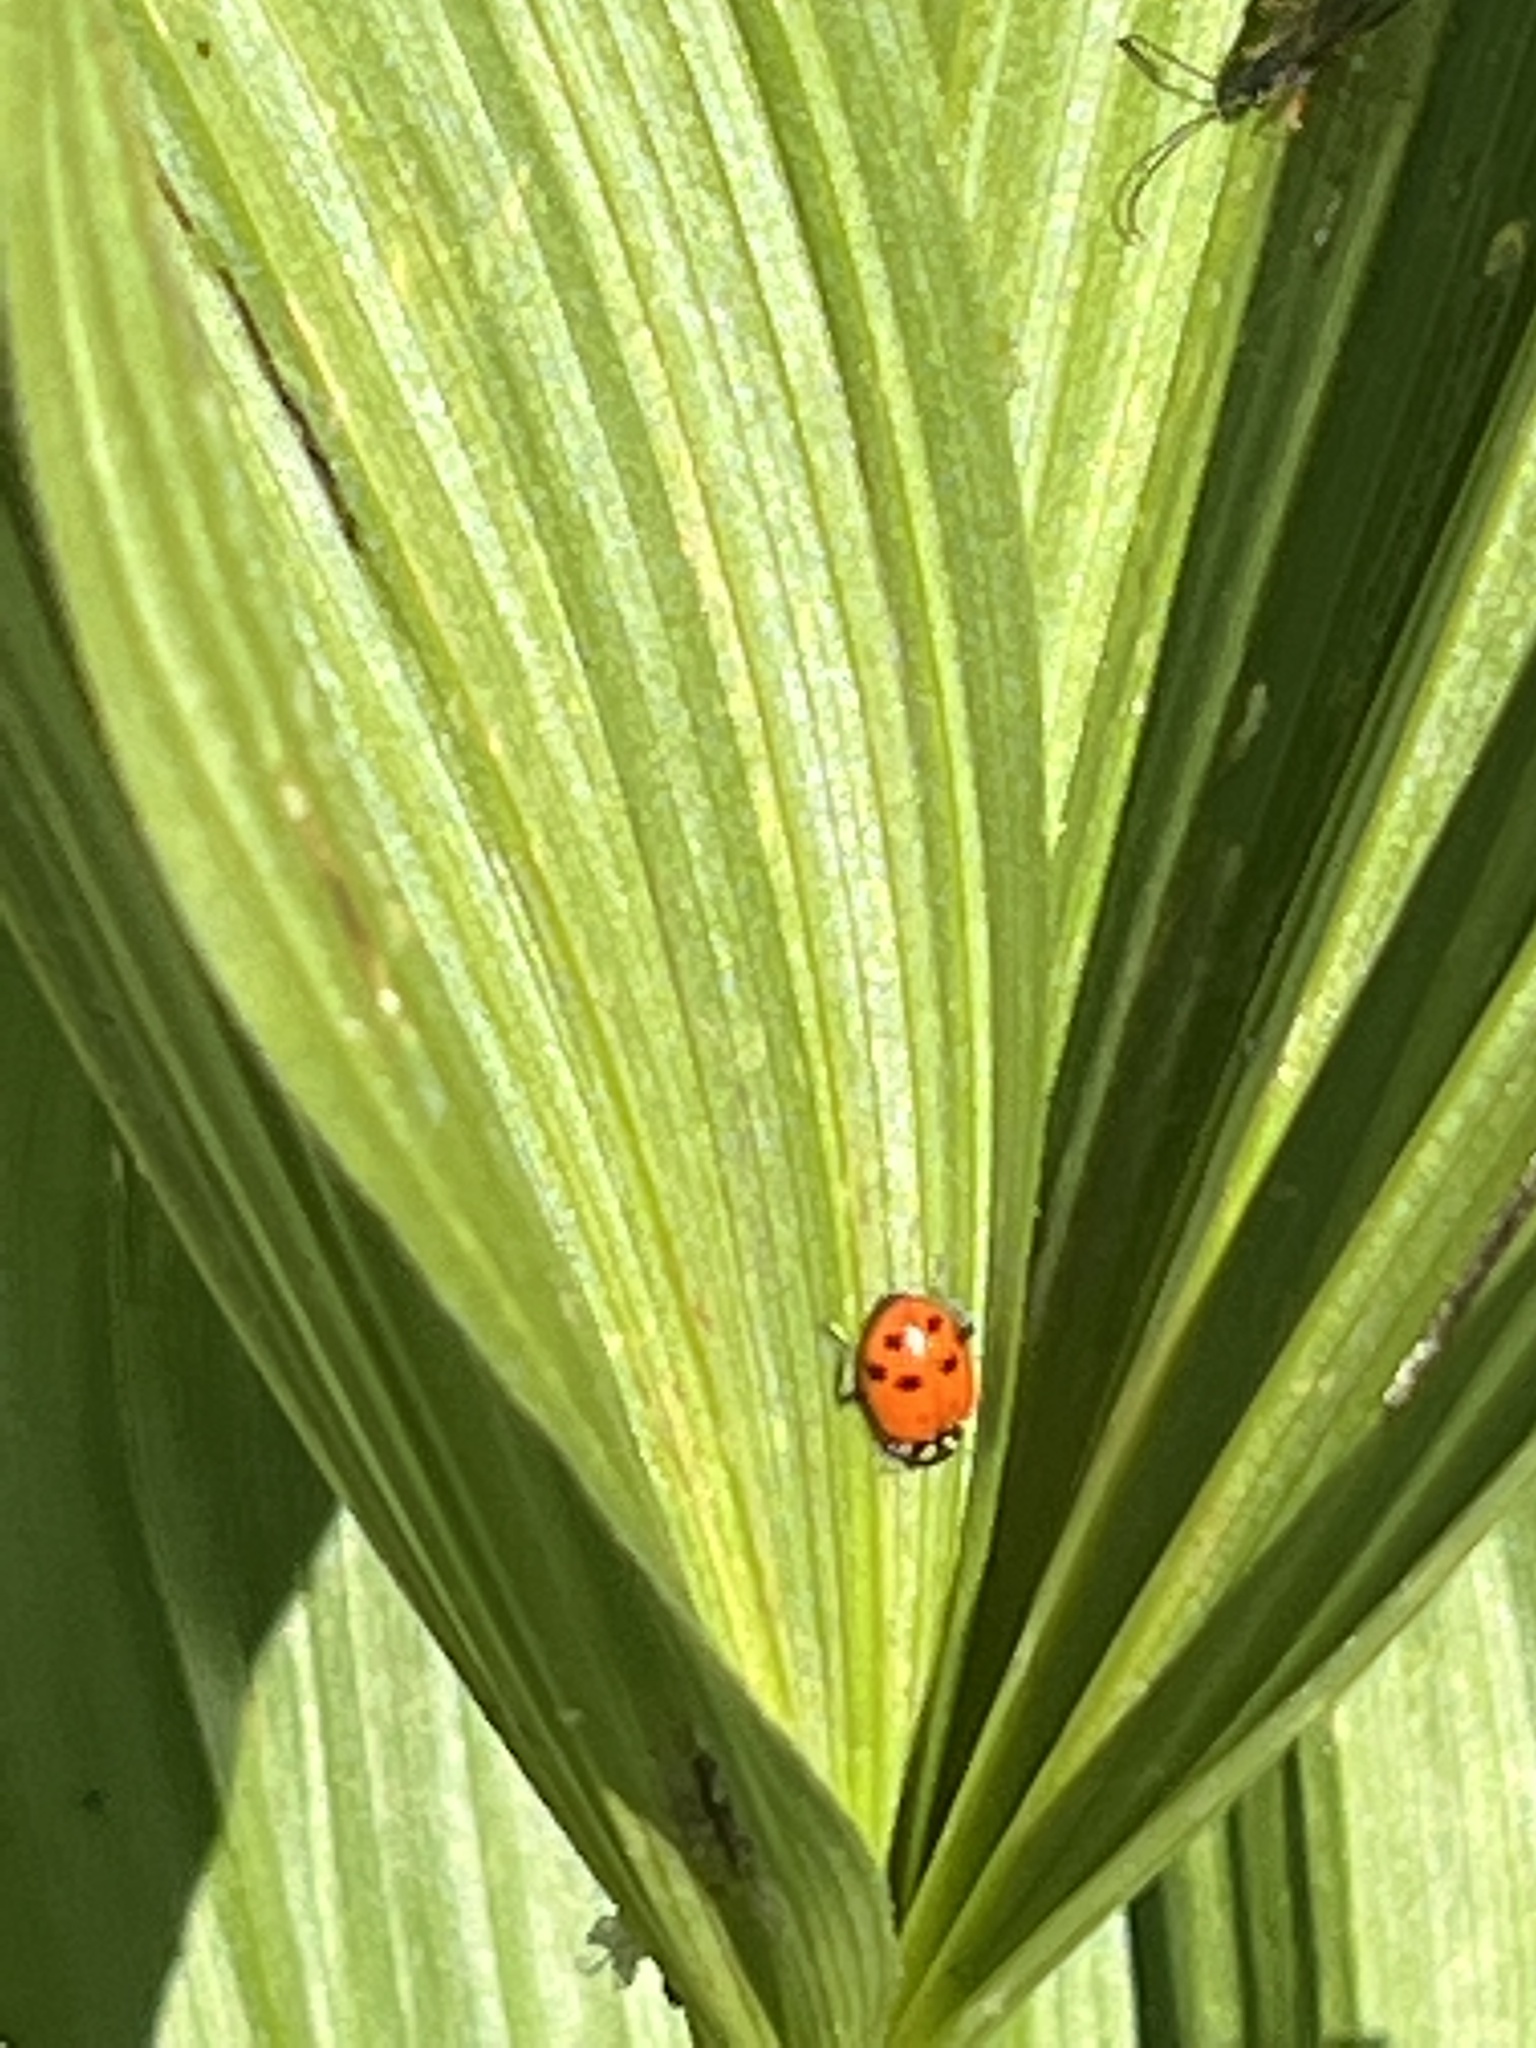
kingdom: Animalia
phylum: Arthropoda
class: Insecta
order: Coleoptera
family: Coccinellidae
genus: Hippodamia
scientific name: Hippodamia convergens
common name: Convergent lady beetle
